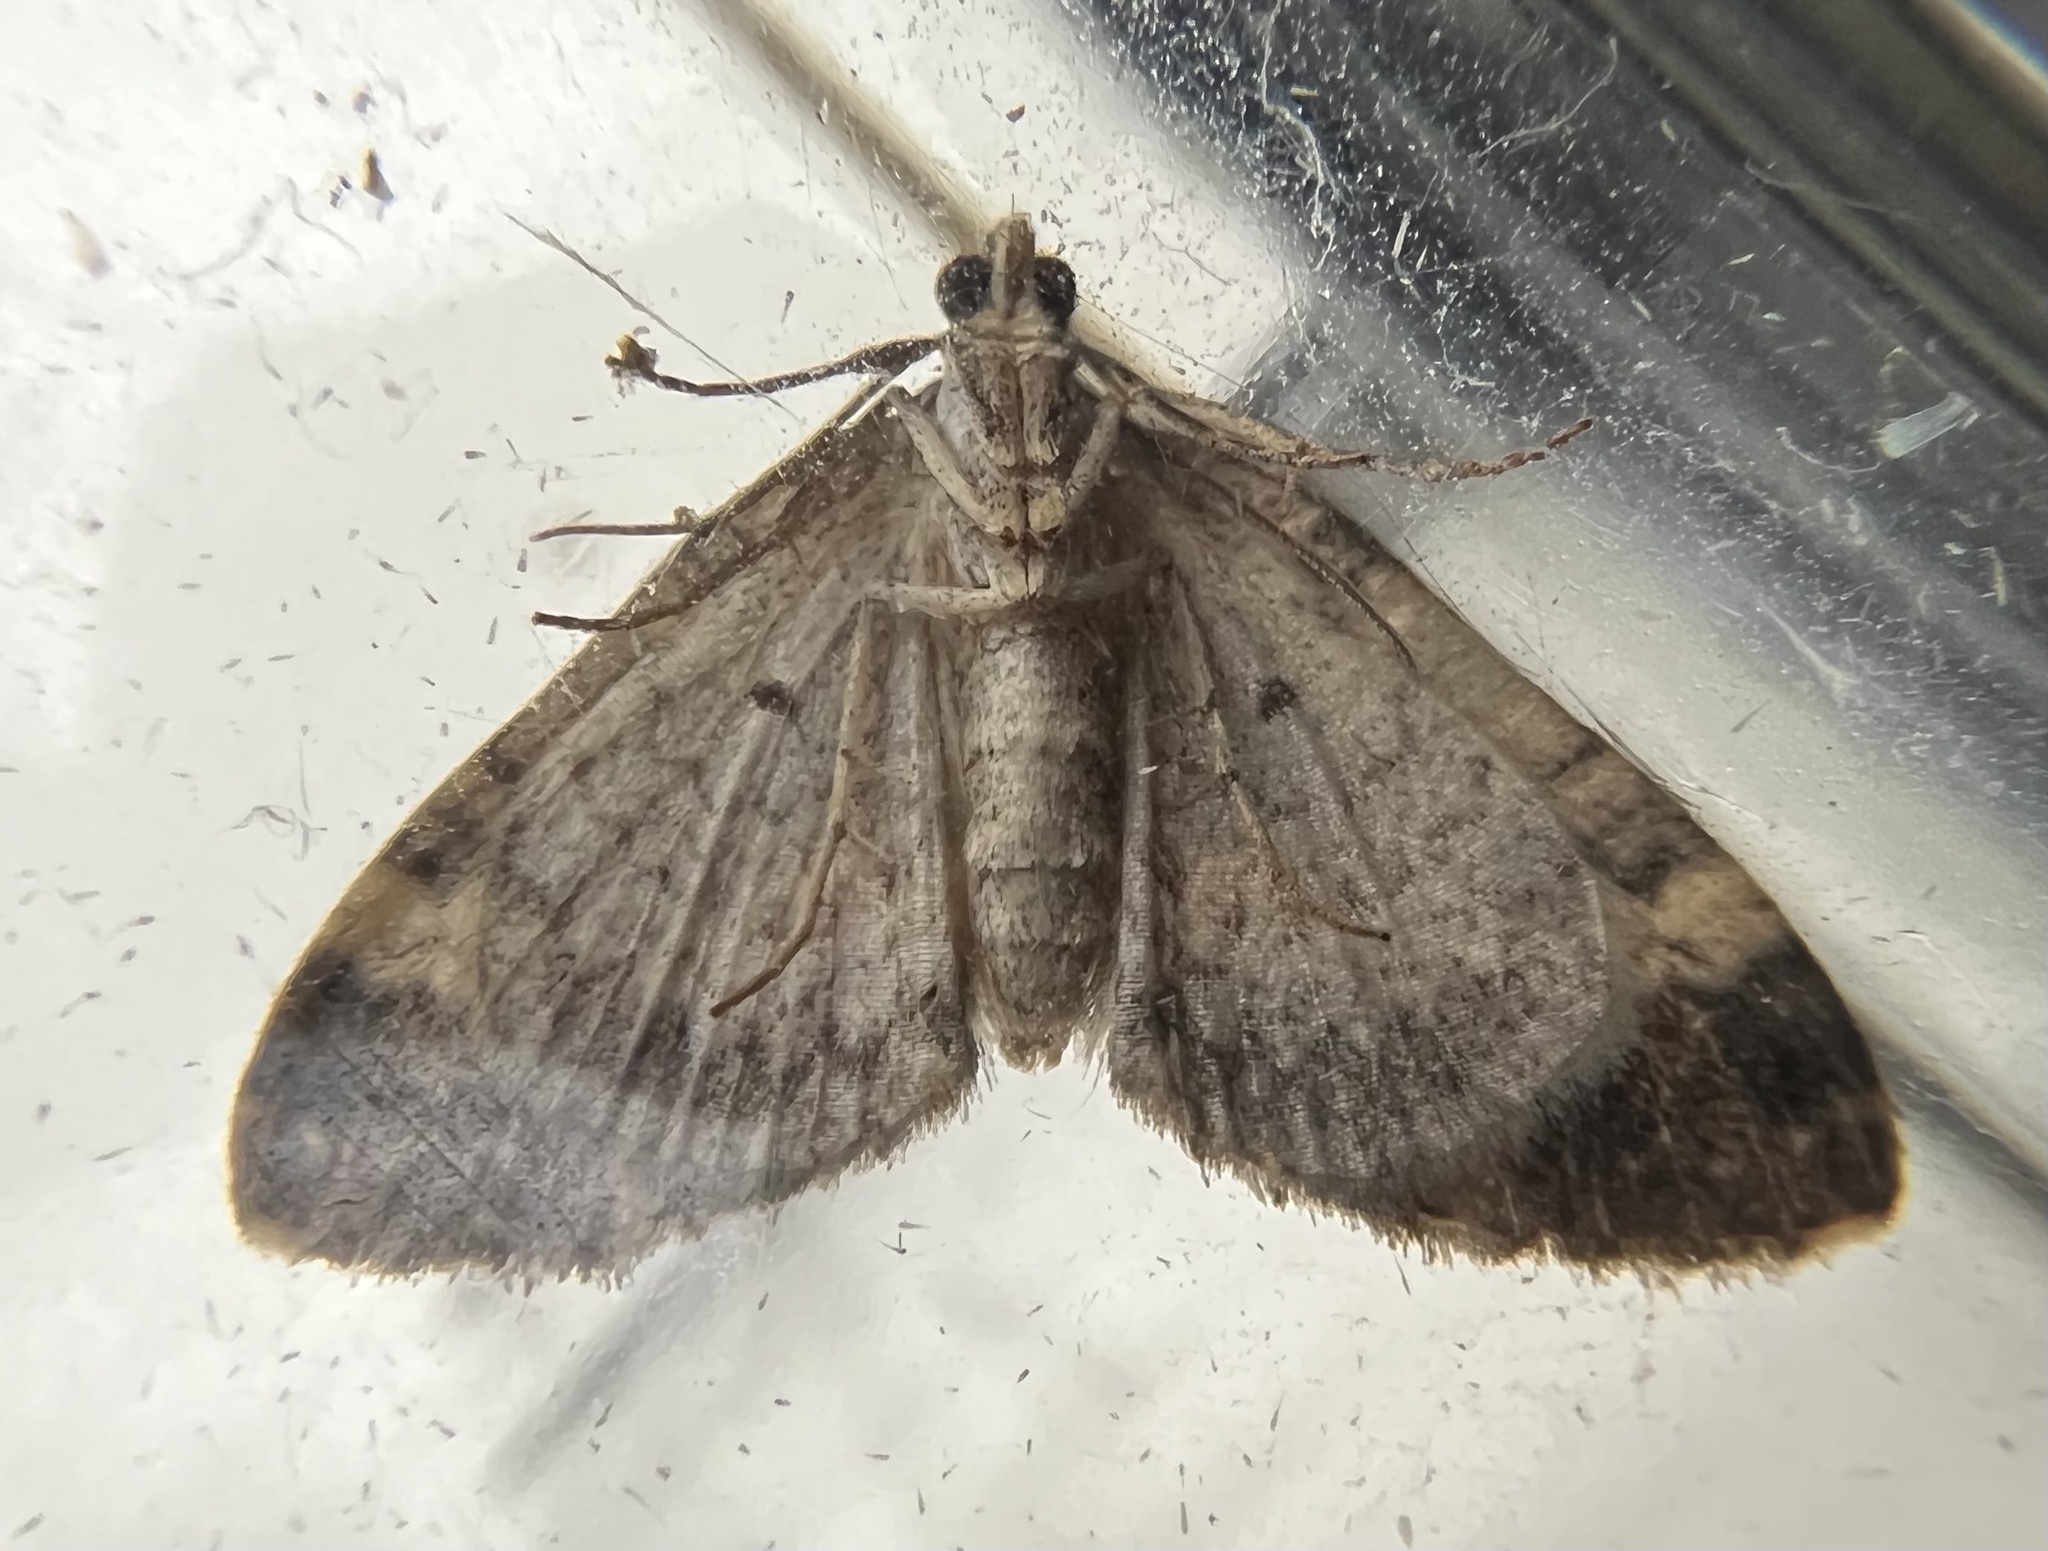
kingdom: Animalia
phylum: Arthropoda
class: Insecta
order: Lepidoptera
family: Geometridae
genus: Euphyia
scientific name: Euphyia intermediata
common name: Sharp-angled carpet
